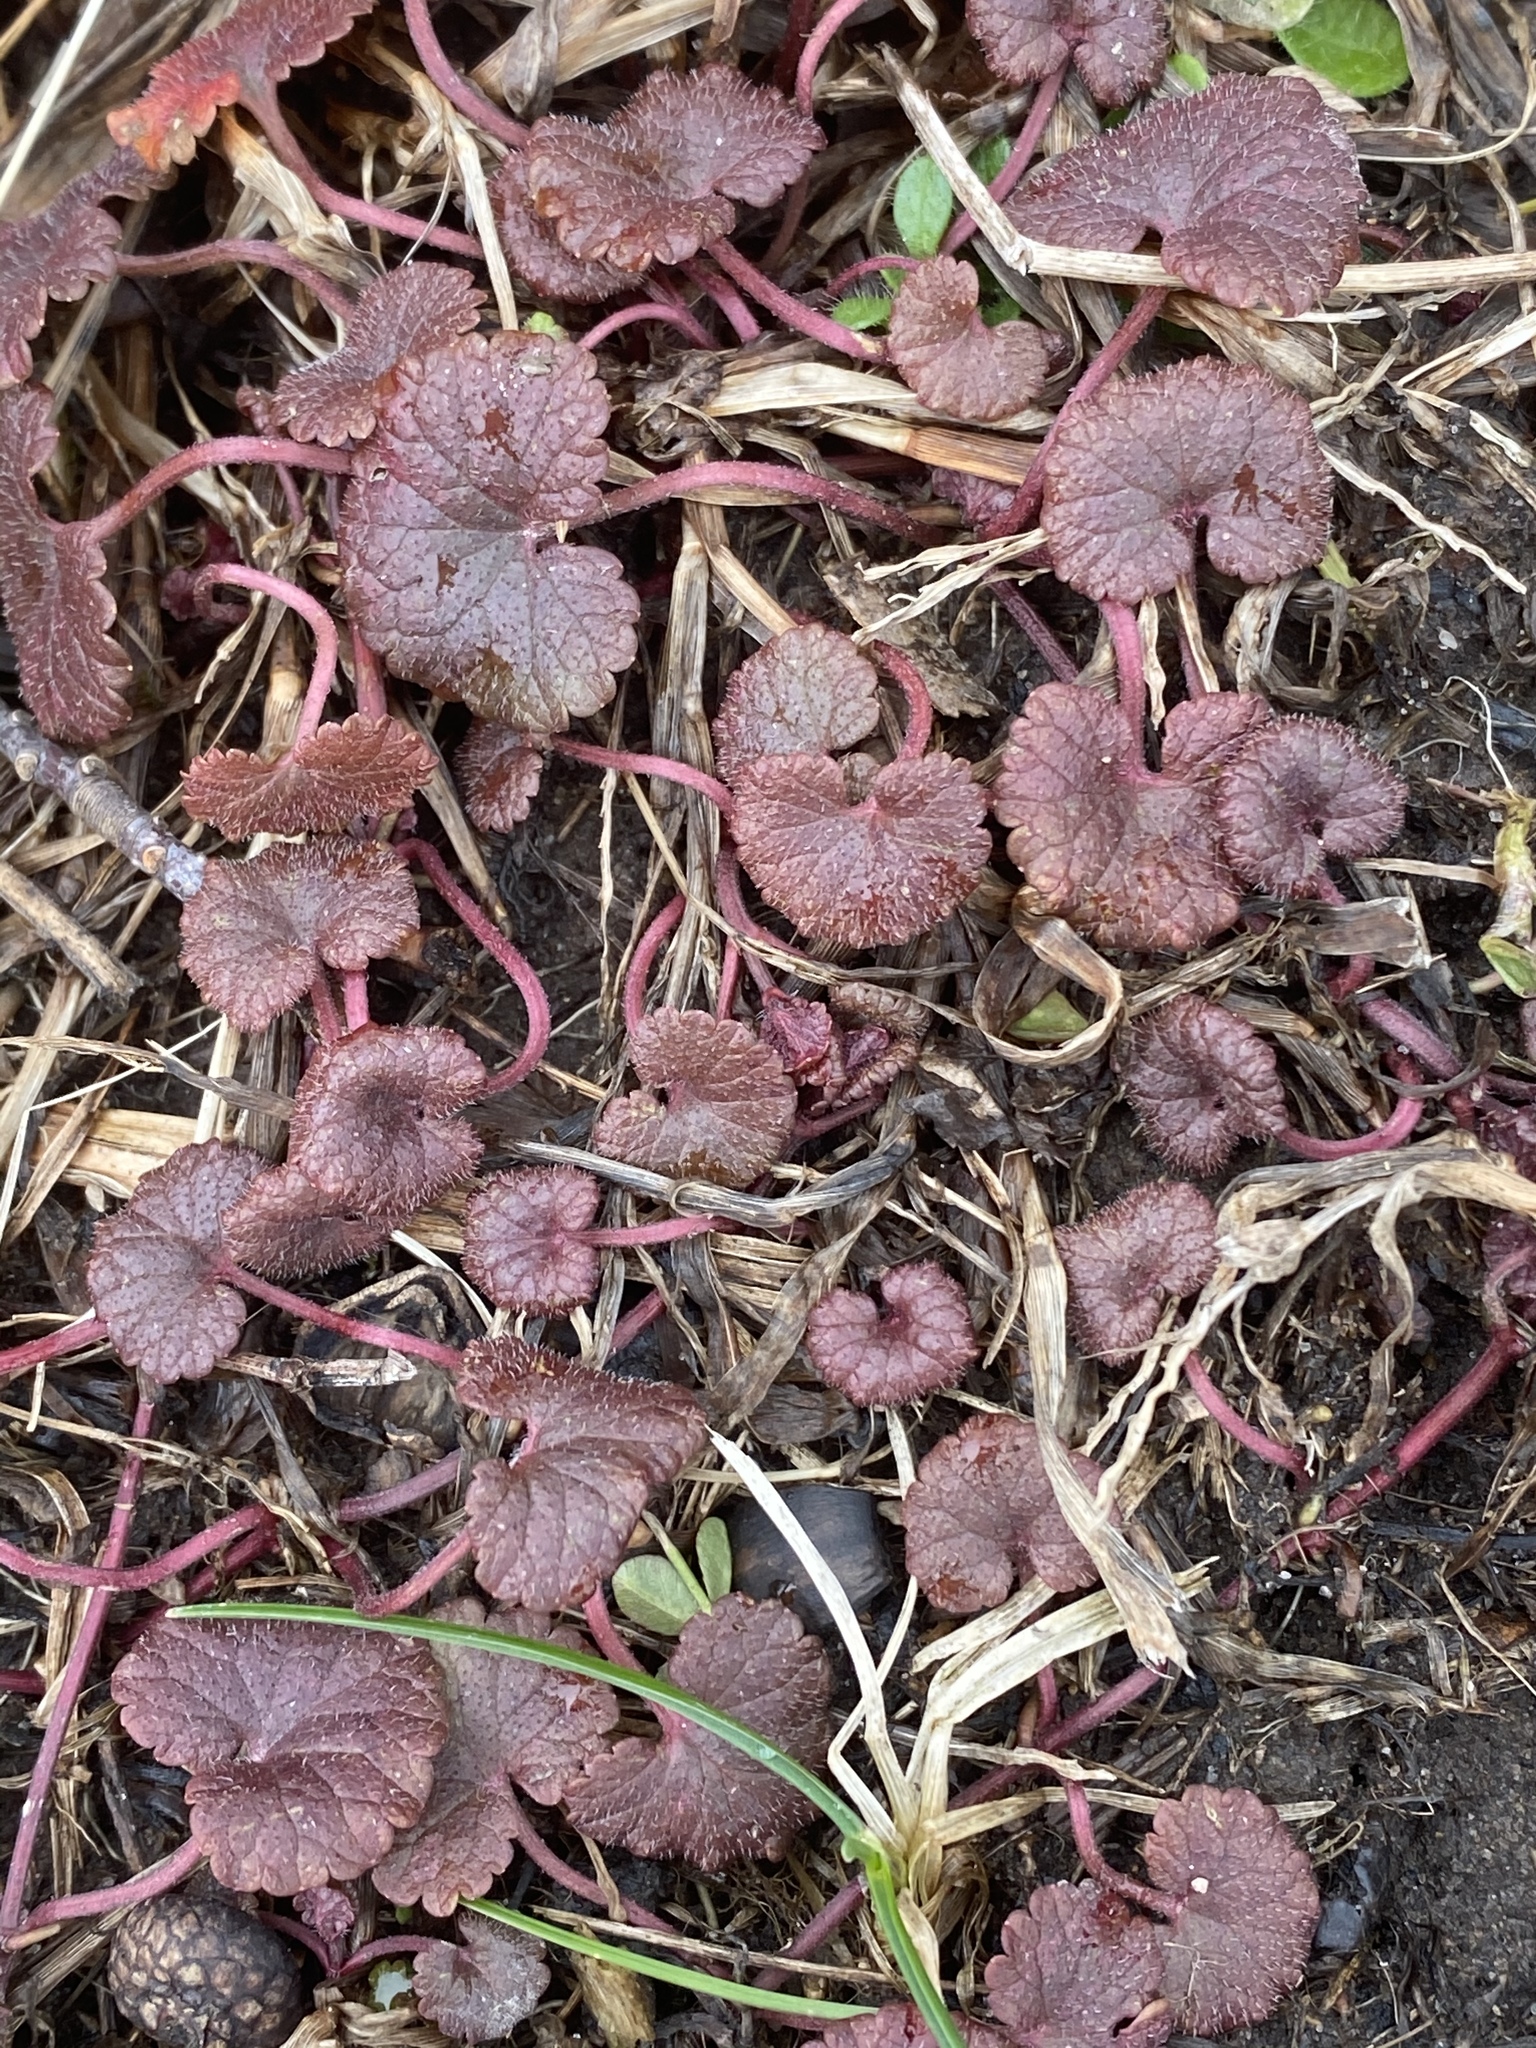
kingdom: Plantae
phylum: Tracheophyta
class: Magnoliopsida
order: Lamiales
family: Lamiaceae
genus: Glechoma
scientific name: Glechoma hederacea
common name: Ground ivy
